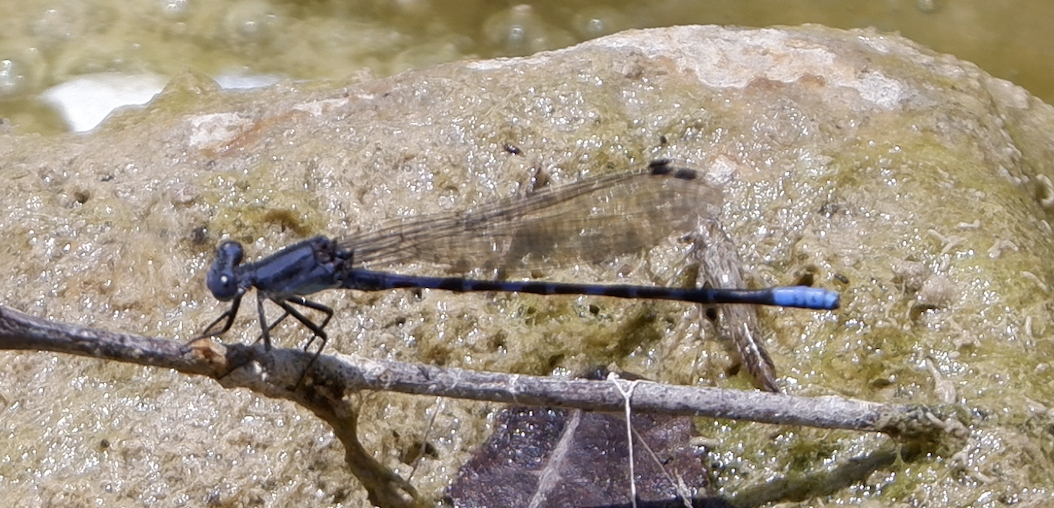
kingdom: Animalia
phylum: Arthropoda
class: Insecta
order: Odonata
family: Coenagrionidae
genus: Argia
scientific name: Argia immunda
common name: Kiowa dancer
